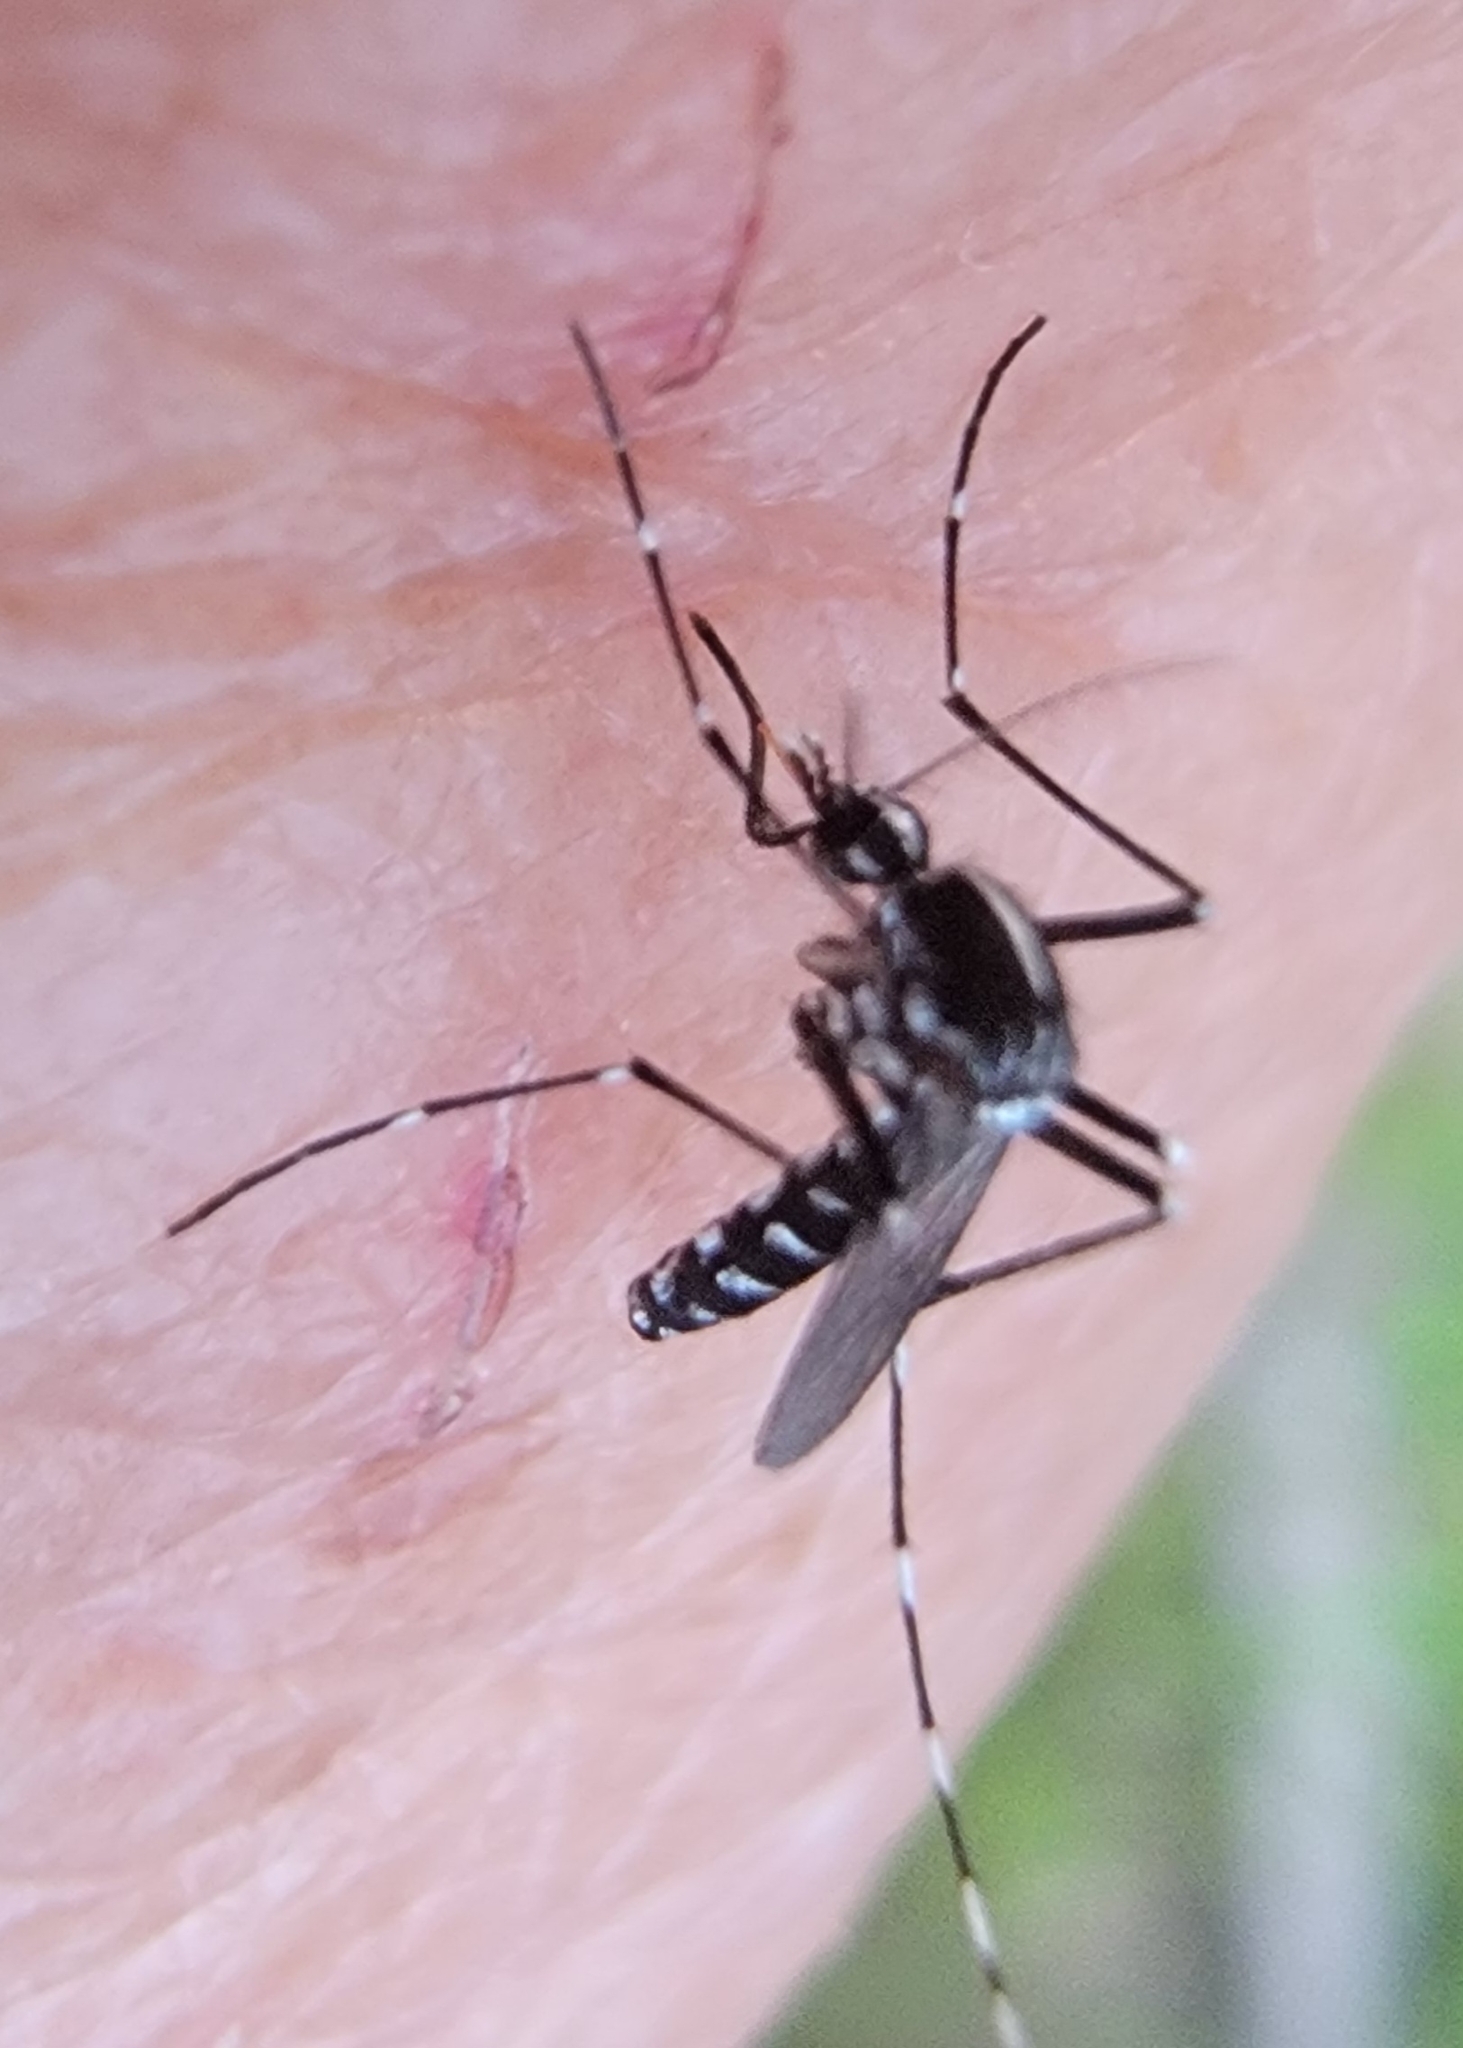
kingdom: Animalia
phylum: Arthropoda
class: Insecta
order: Diptera
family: Culicidae
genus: Aedes
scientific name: Aedes albopictus
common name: Tiger mosquito
